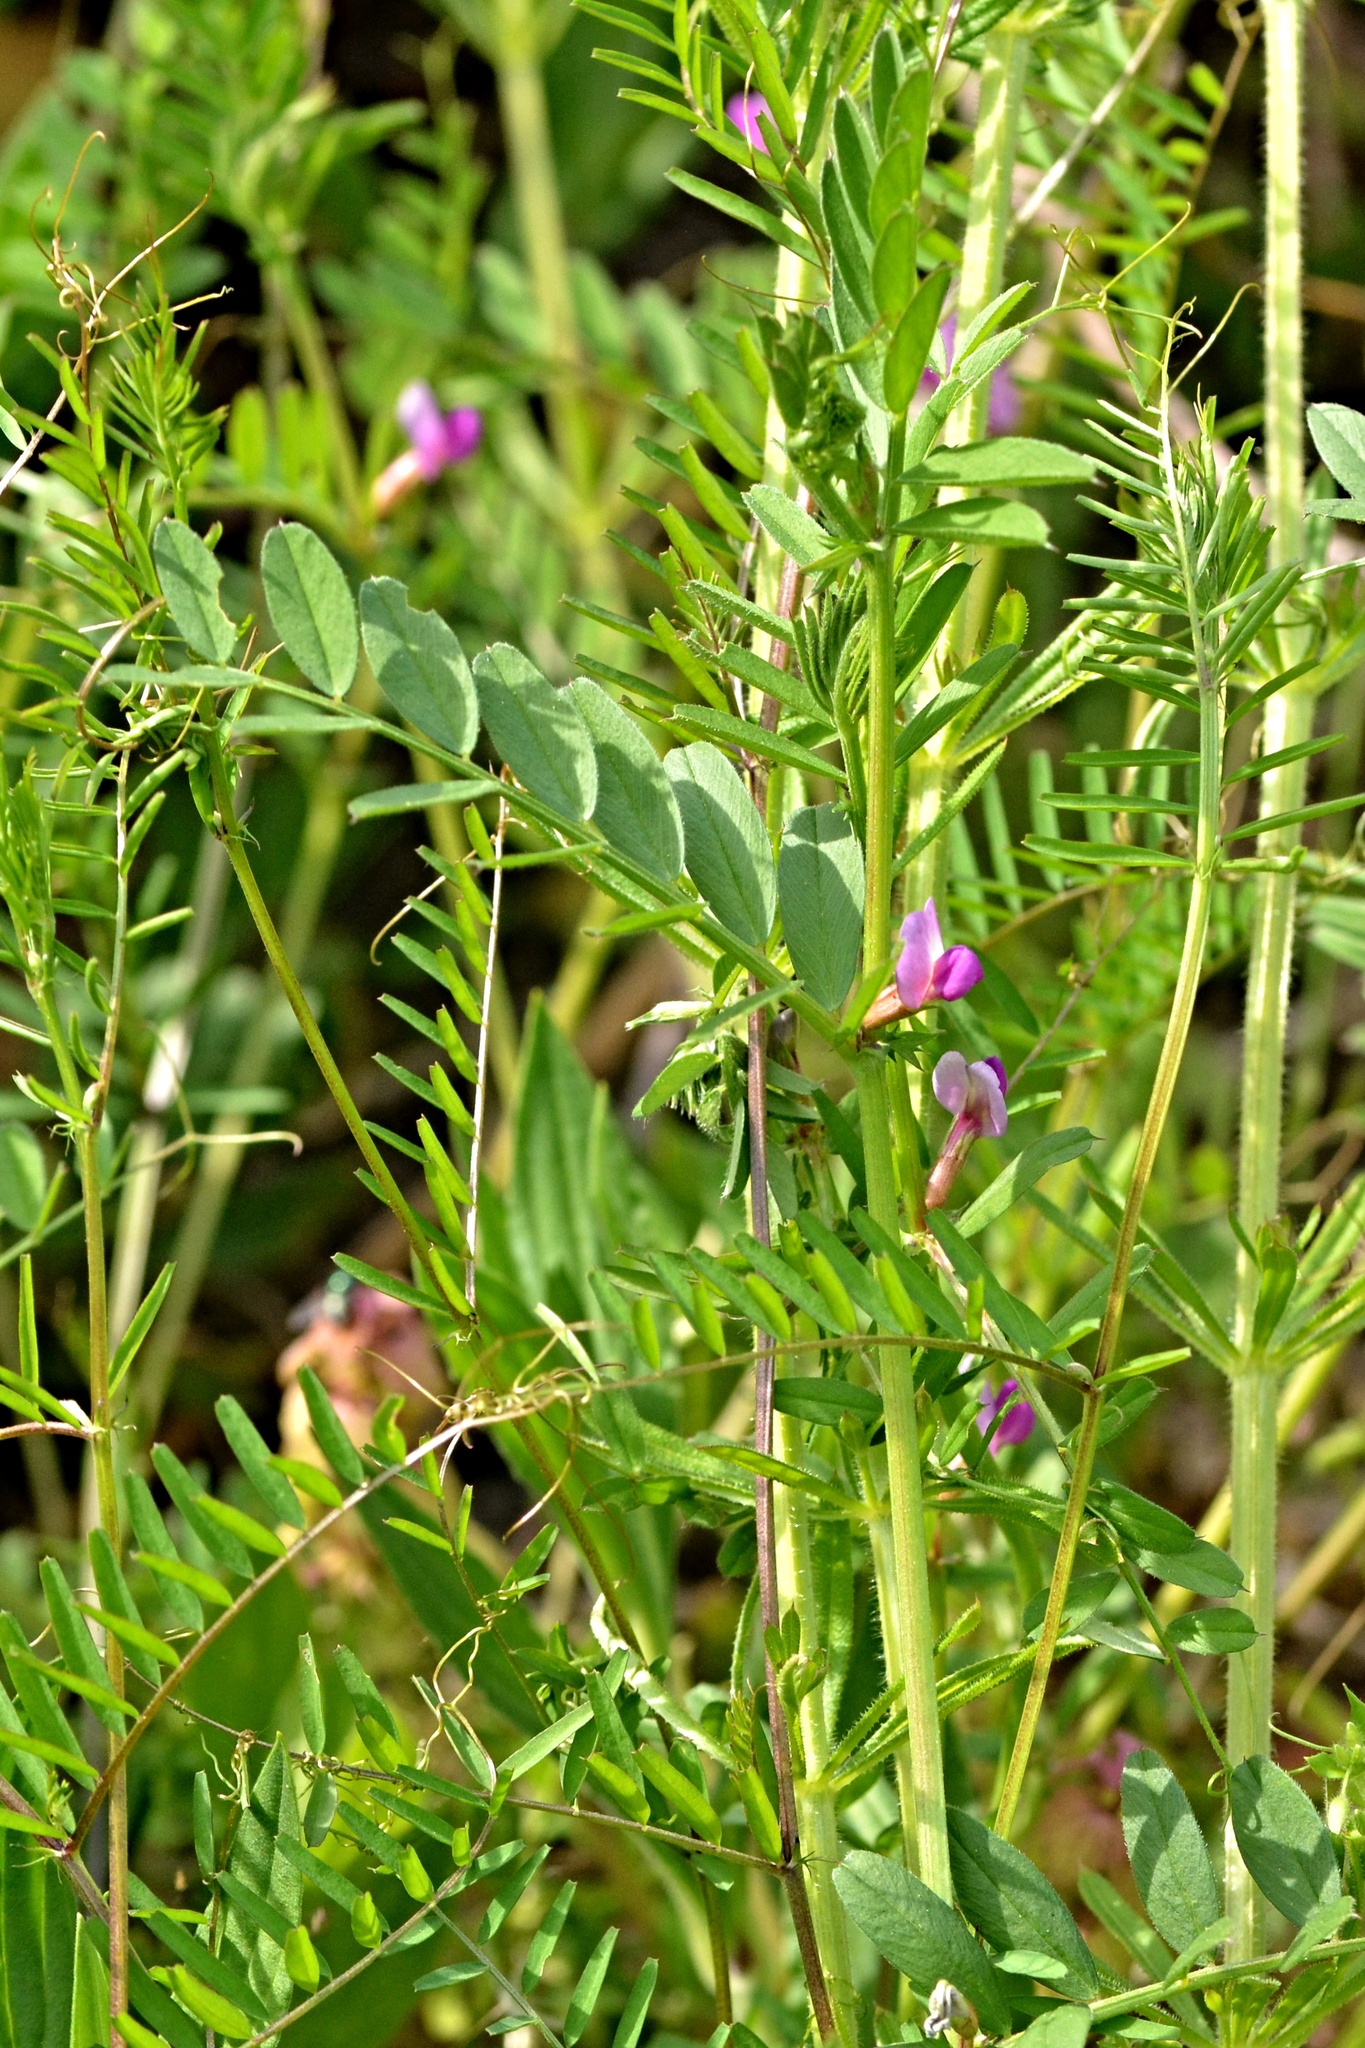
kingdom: Plantae
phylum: Tracheophyta
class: Magnoliopsida
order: Fabales
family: Fabaceae
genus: Vicia
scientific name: Vicia sativa
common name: Garden vetch
